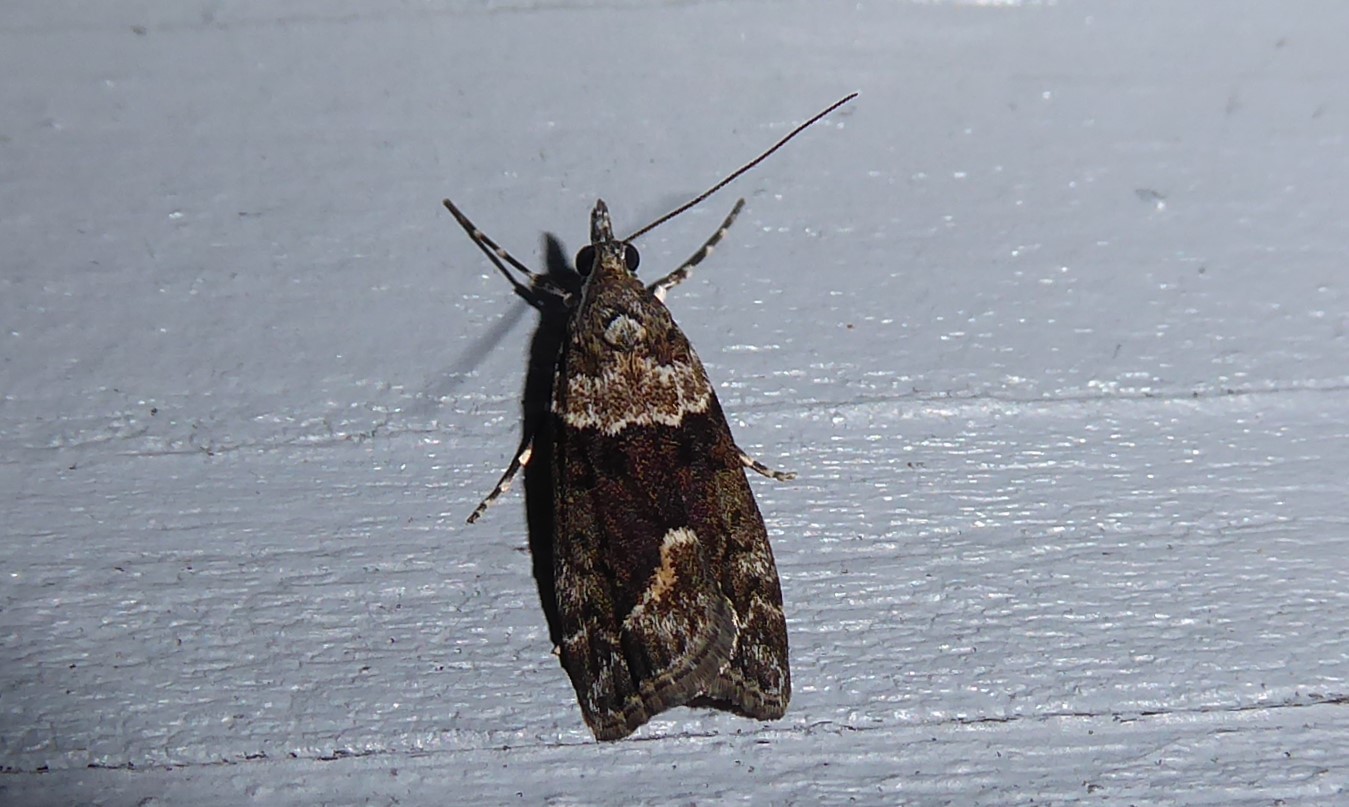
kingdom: Animalia
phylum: Arthropoda
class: Insecta
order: Lepidoptera
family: Crambidae
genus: Eudonia
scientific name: Eudonia submarginalis
